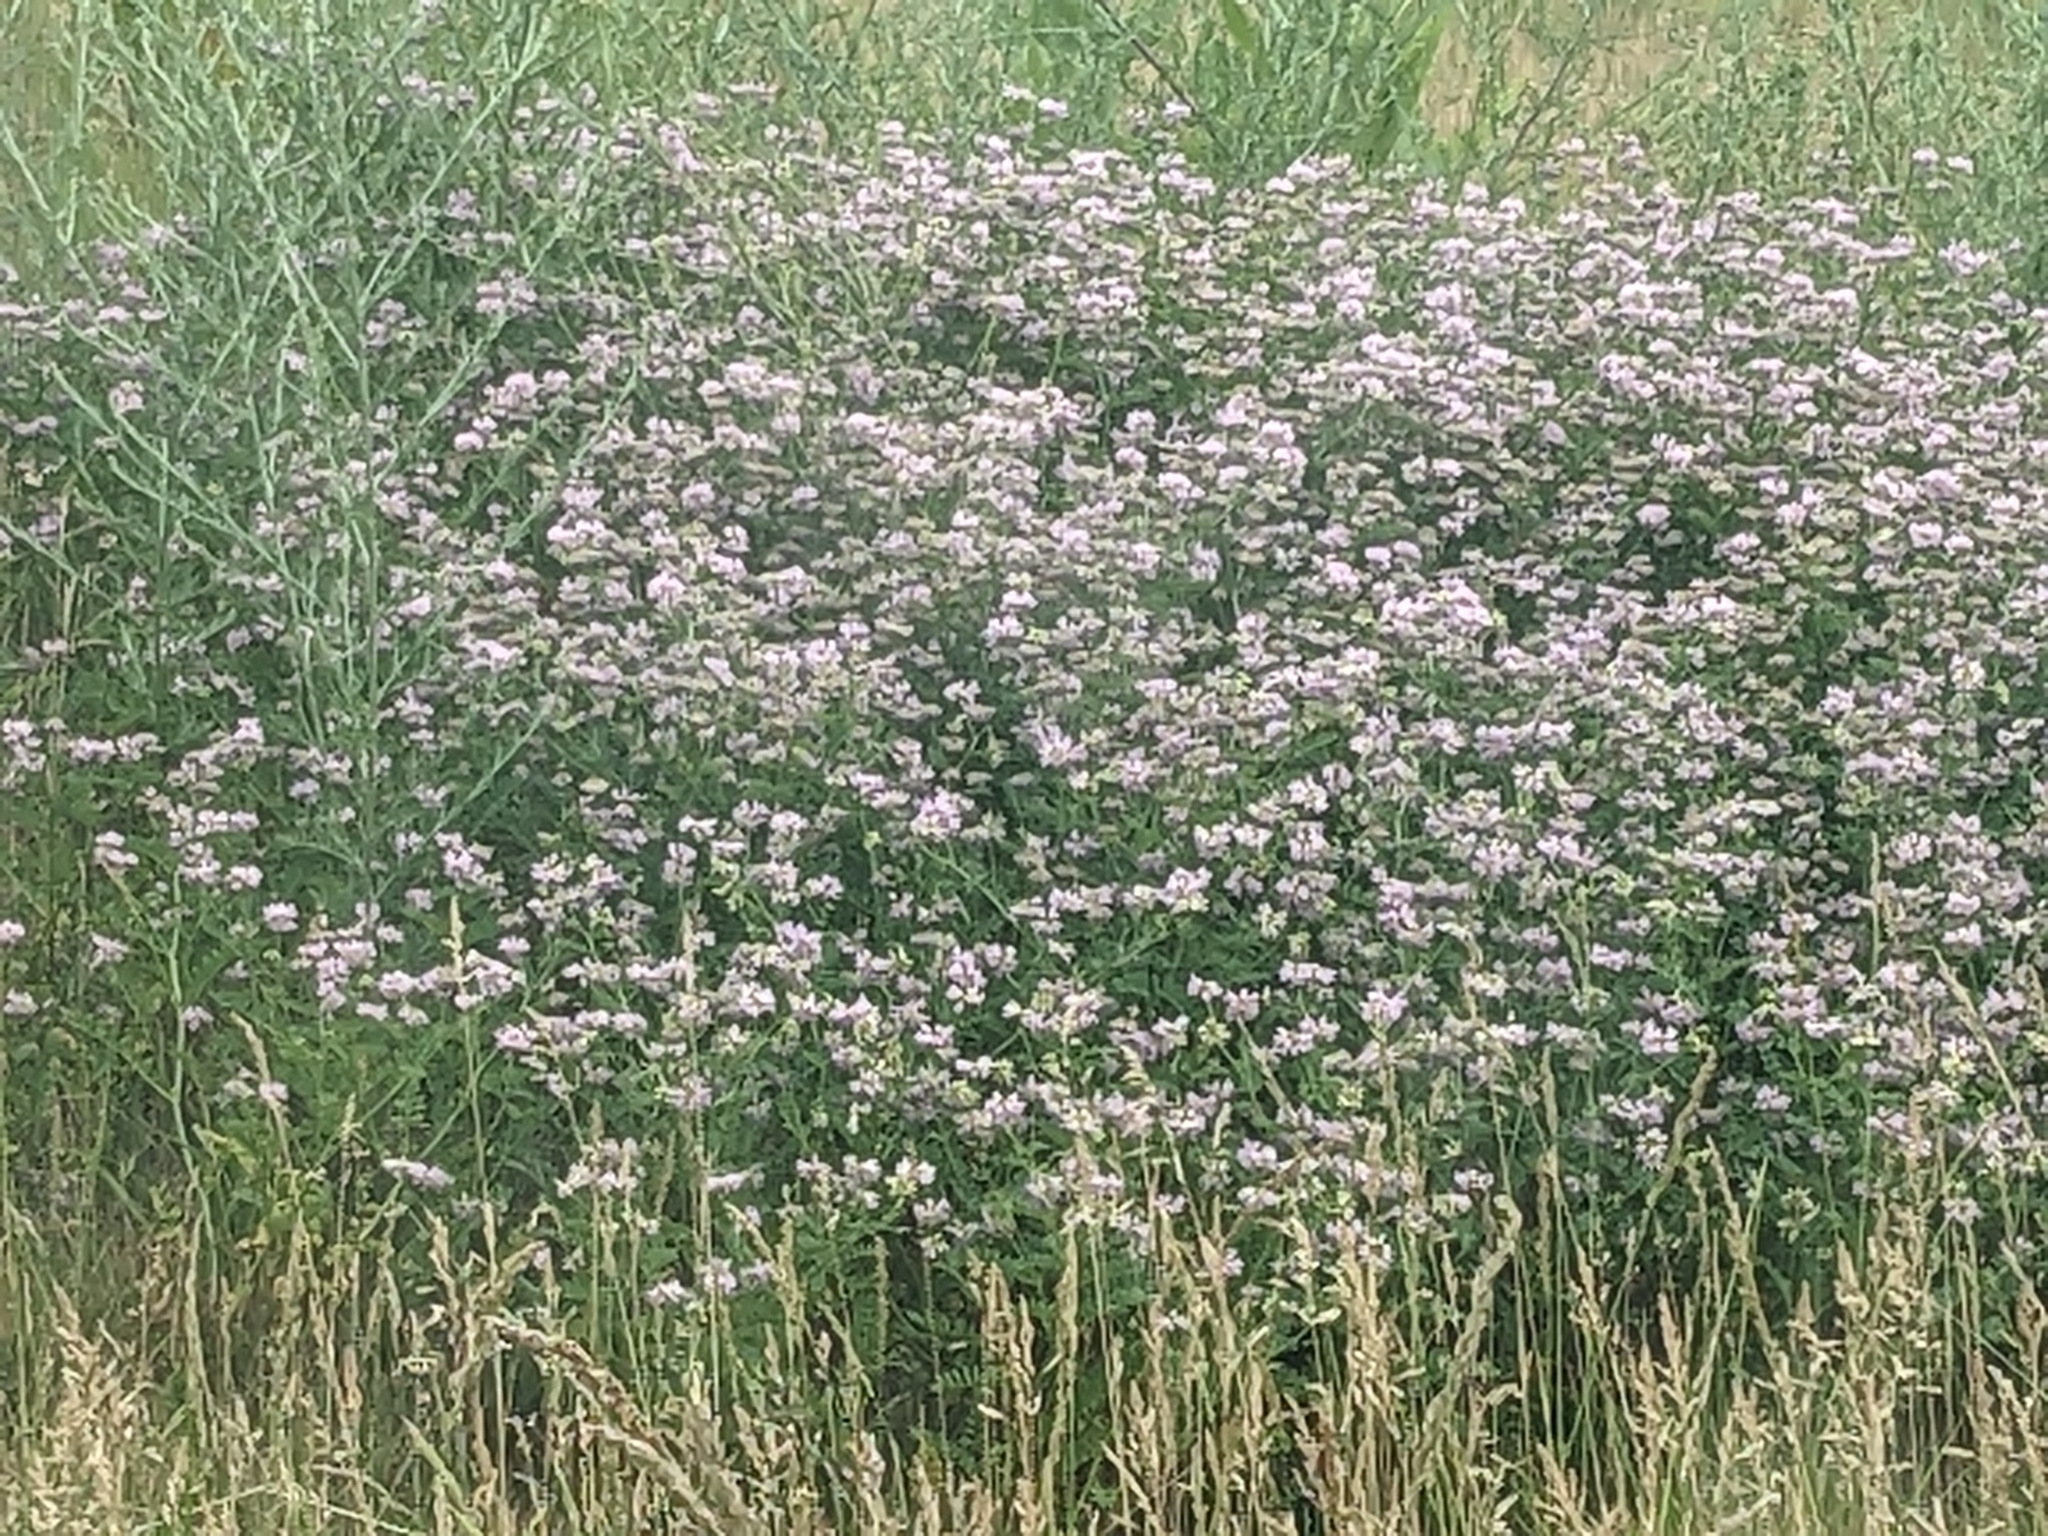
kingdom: Plantae
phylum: Tracheophyta
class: Magnoliopsida
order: Fabales
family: Fabaceae
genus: Coronilla
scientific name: Coronilla varia
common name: Crownvetch
